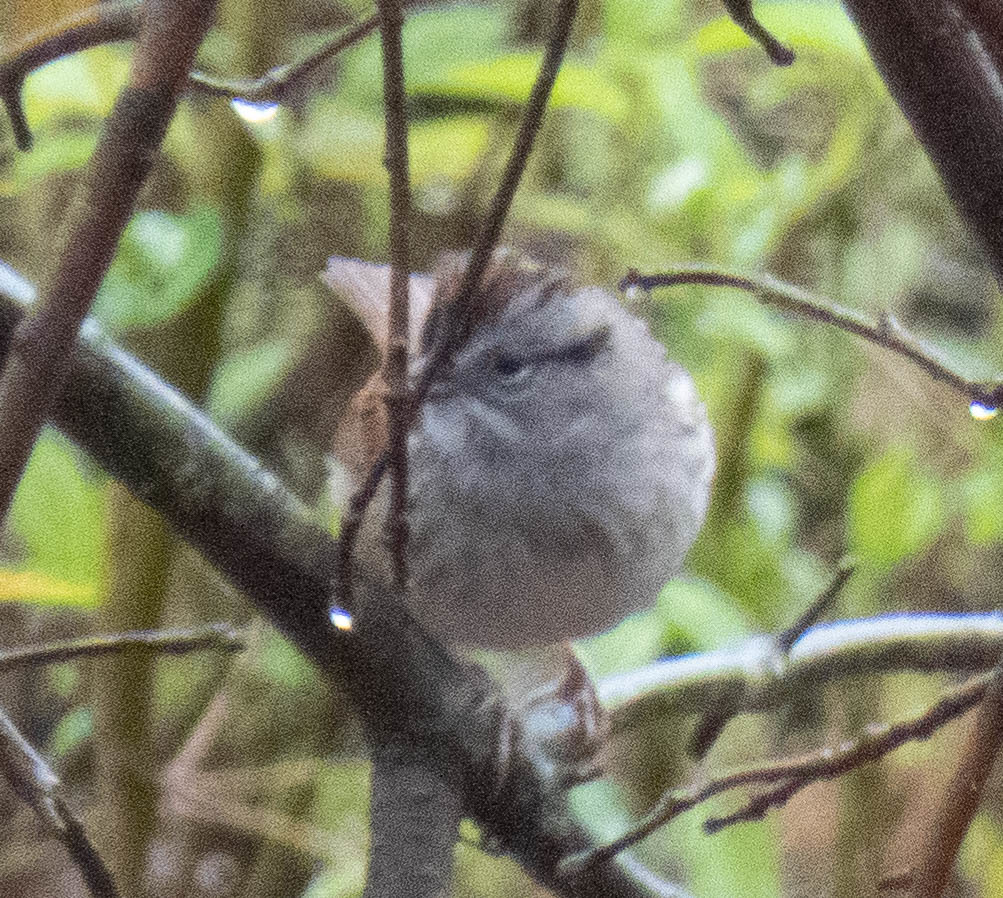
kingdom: Animalia
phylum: Chordata
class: Aves
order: Passeriformes
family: Passerellidae
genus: Melospiza
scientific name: Melospiza georgiana
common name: Swamp sparrow
